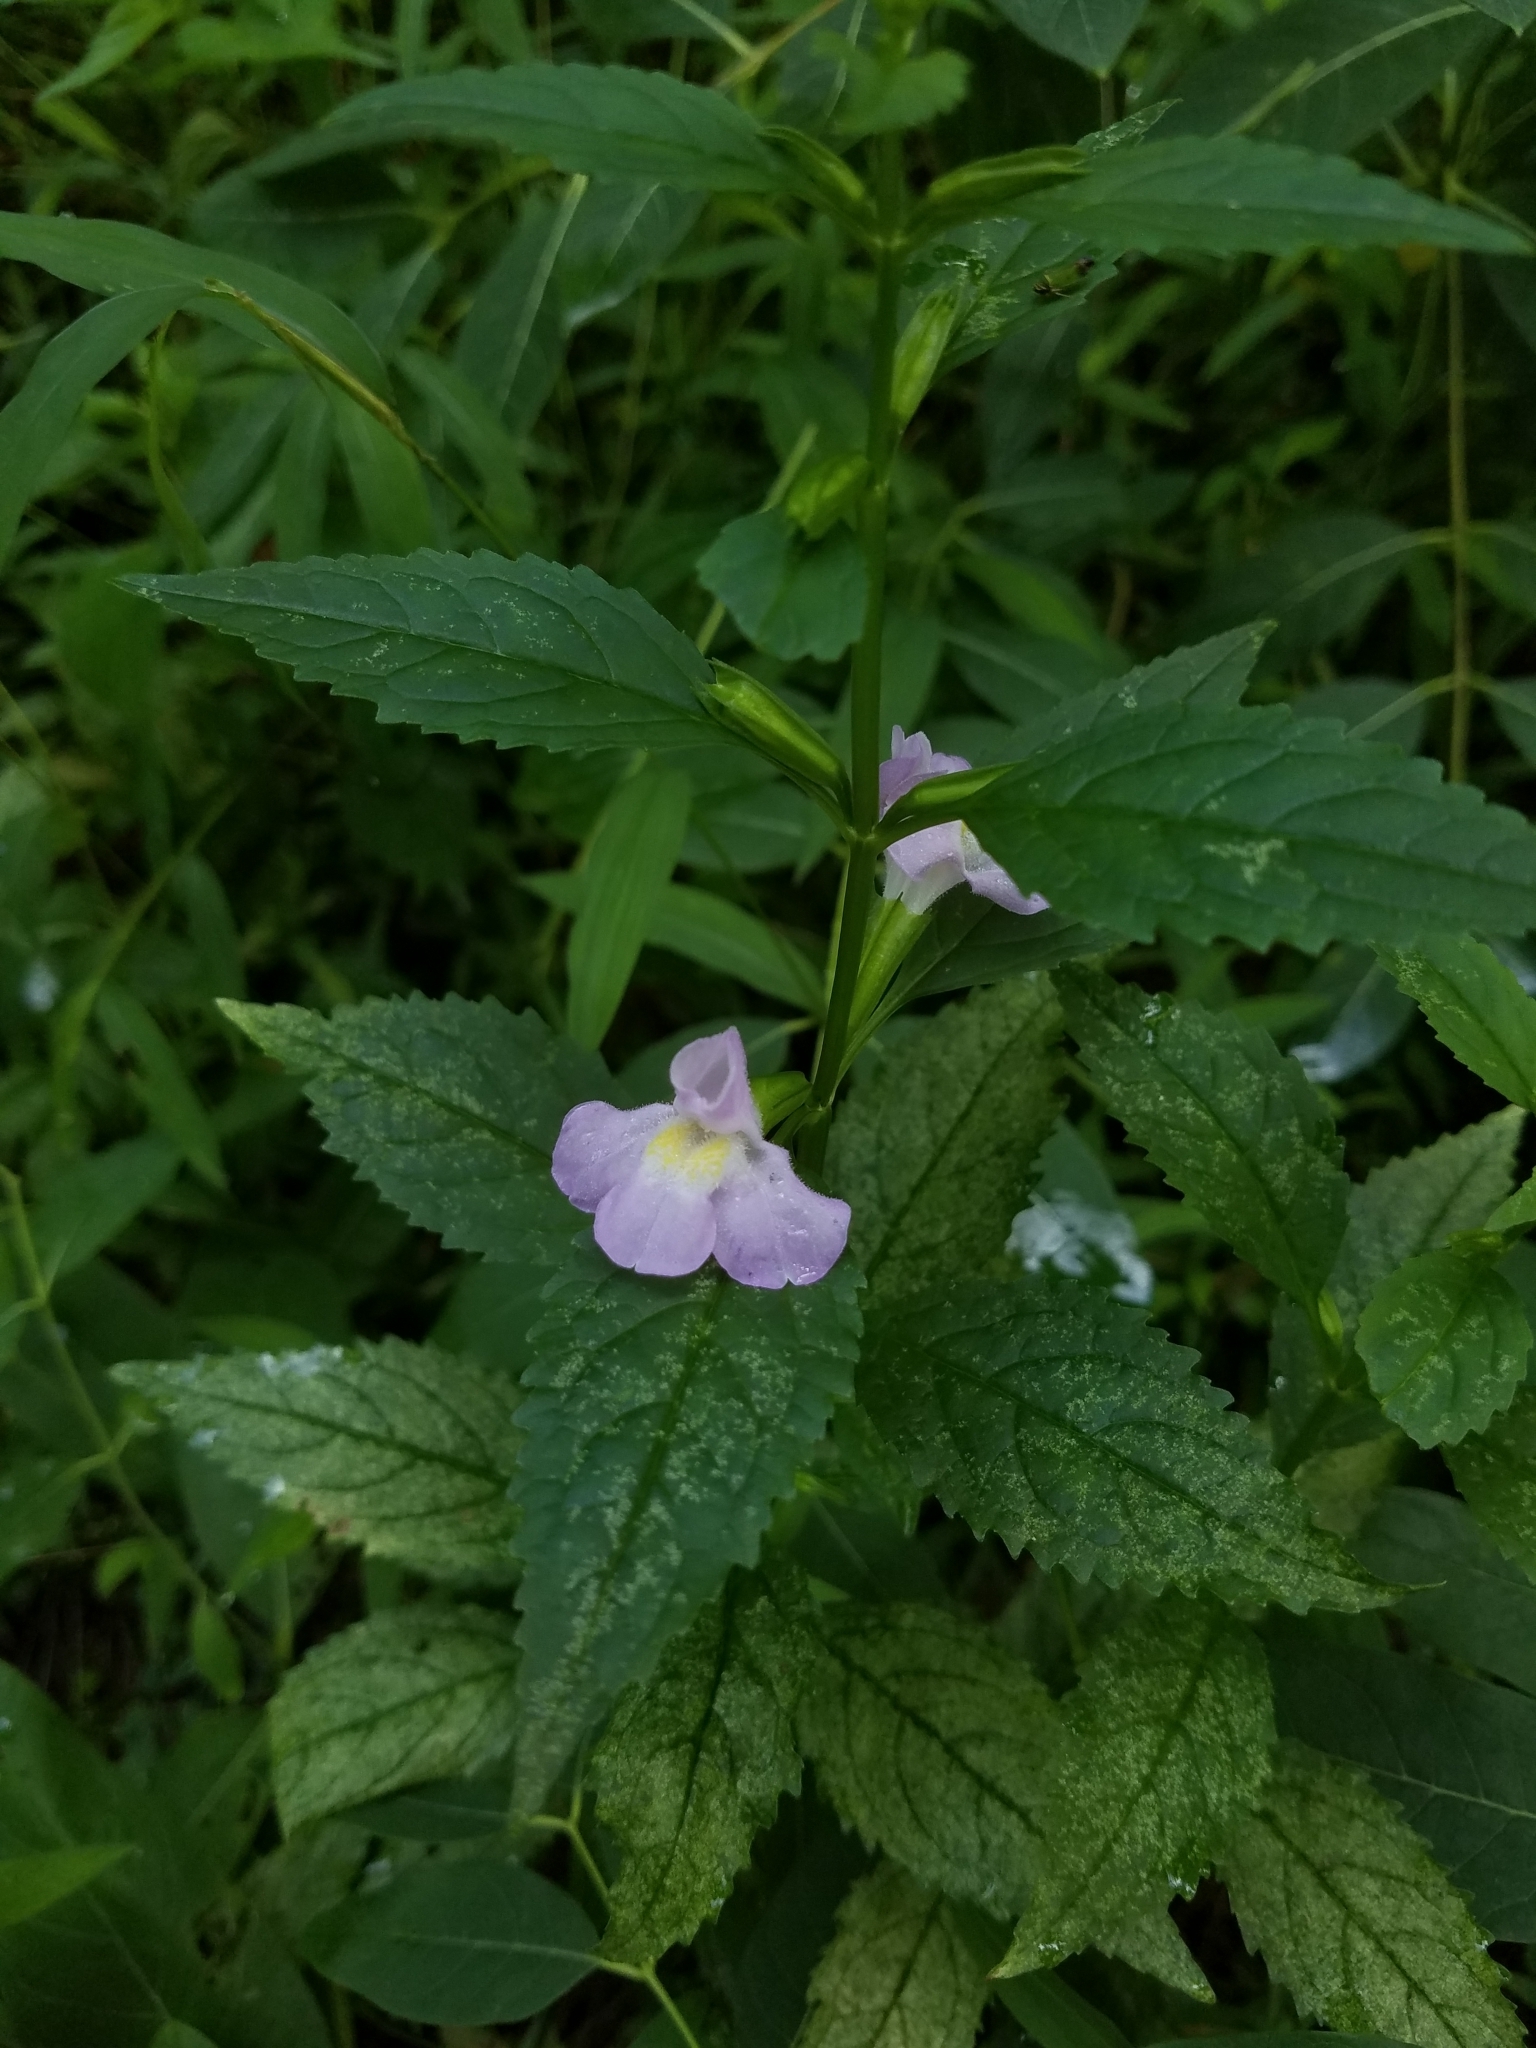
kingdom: Plantae
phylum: Tracheophyta
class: Magnoliopsida
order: Lamiales
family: Phrymaceae
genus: Mimulus
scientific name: Mimulus alatus
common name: Sharp-wing monkey-flower
